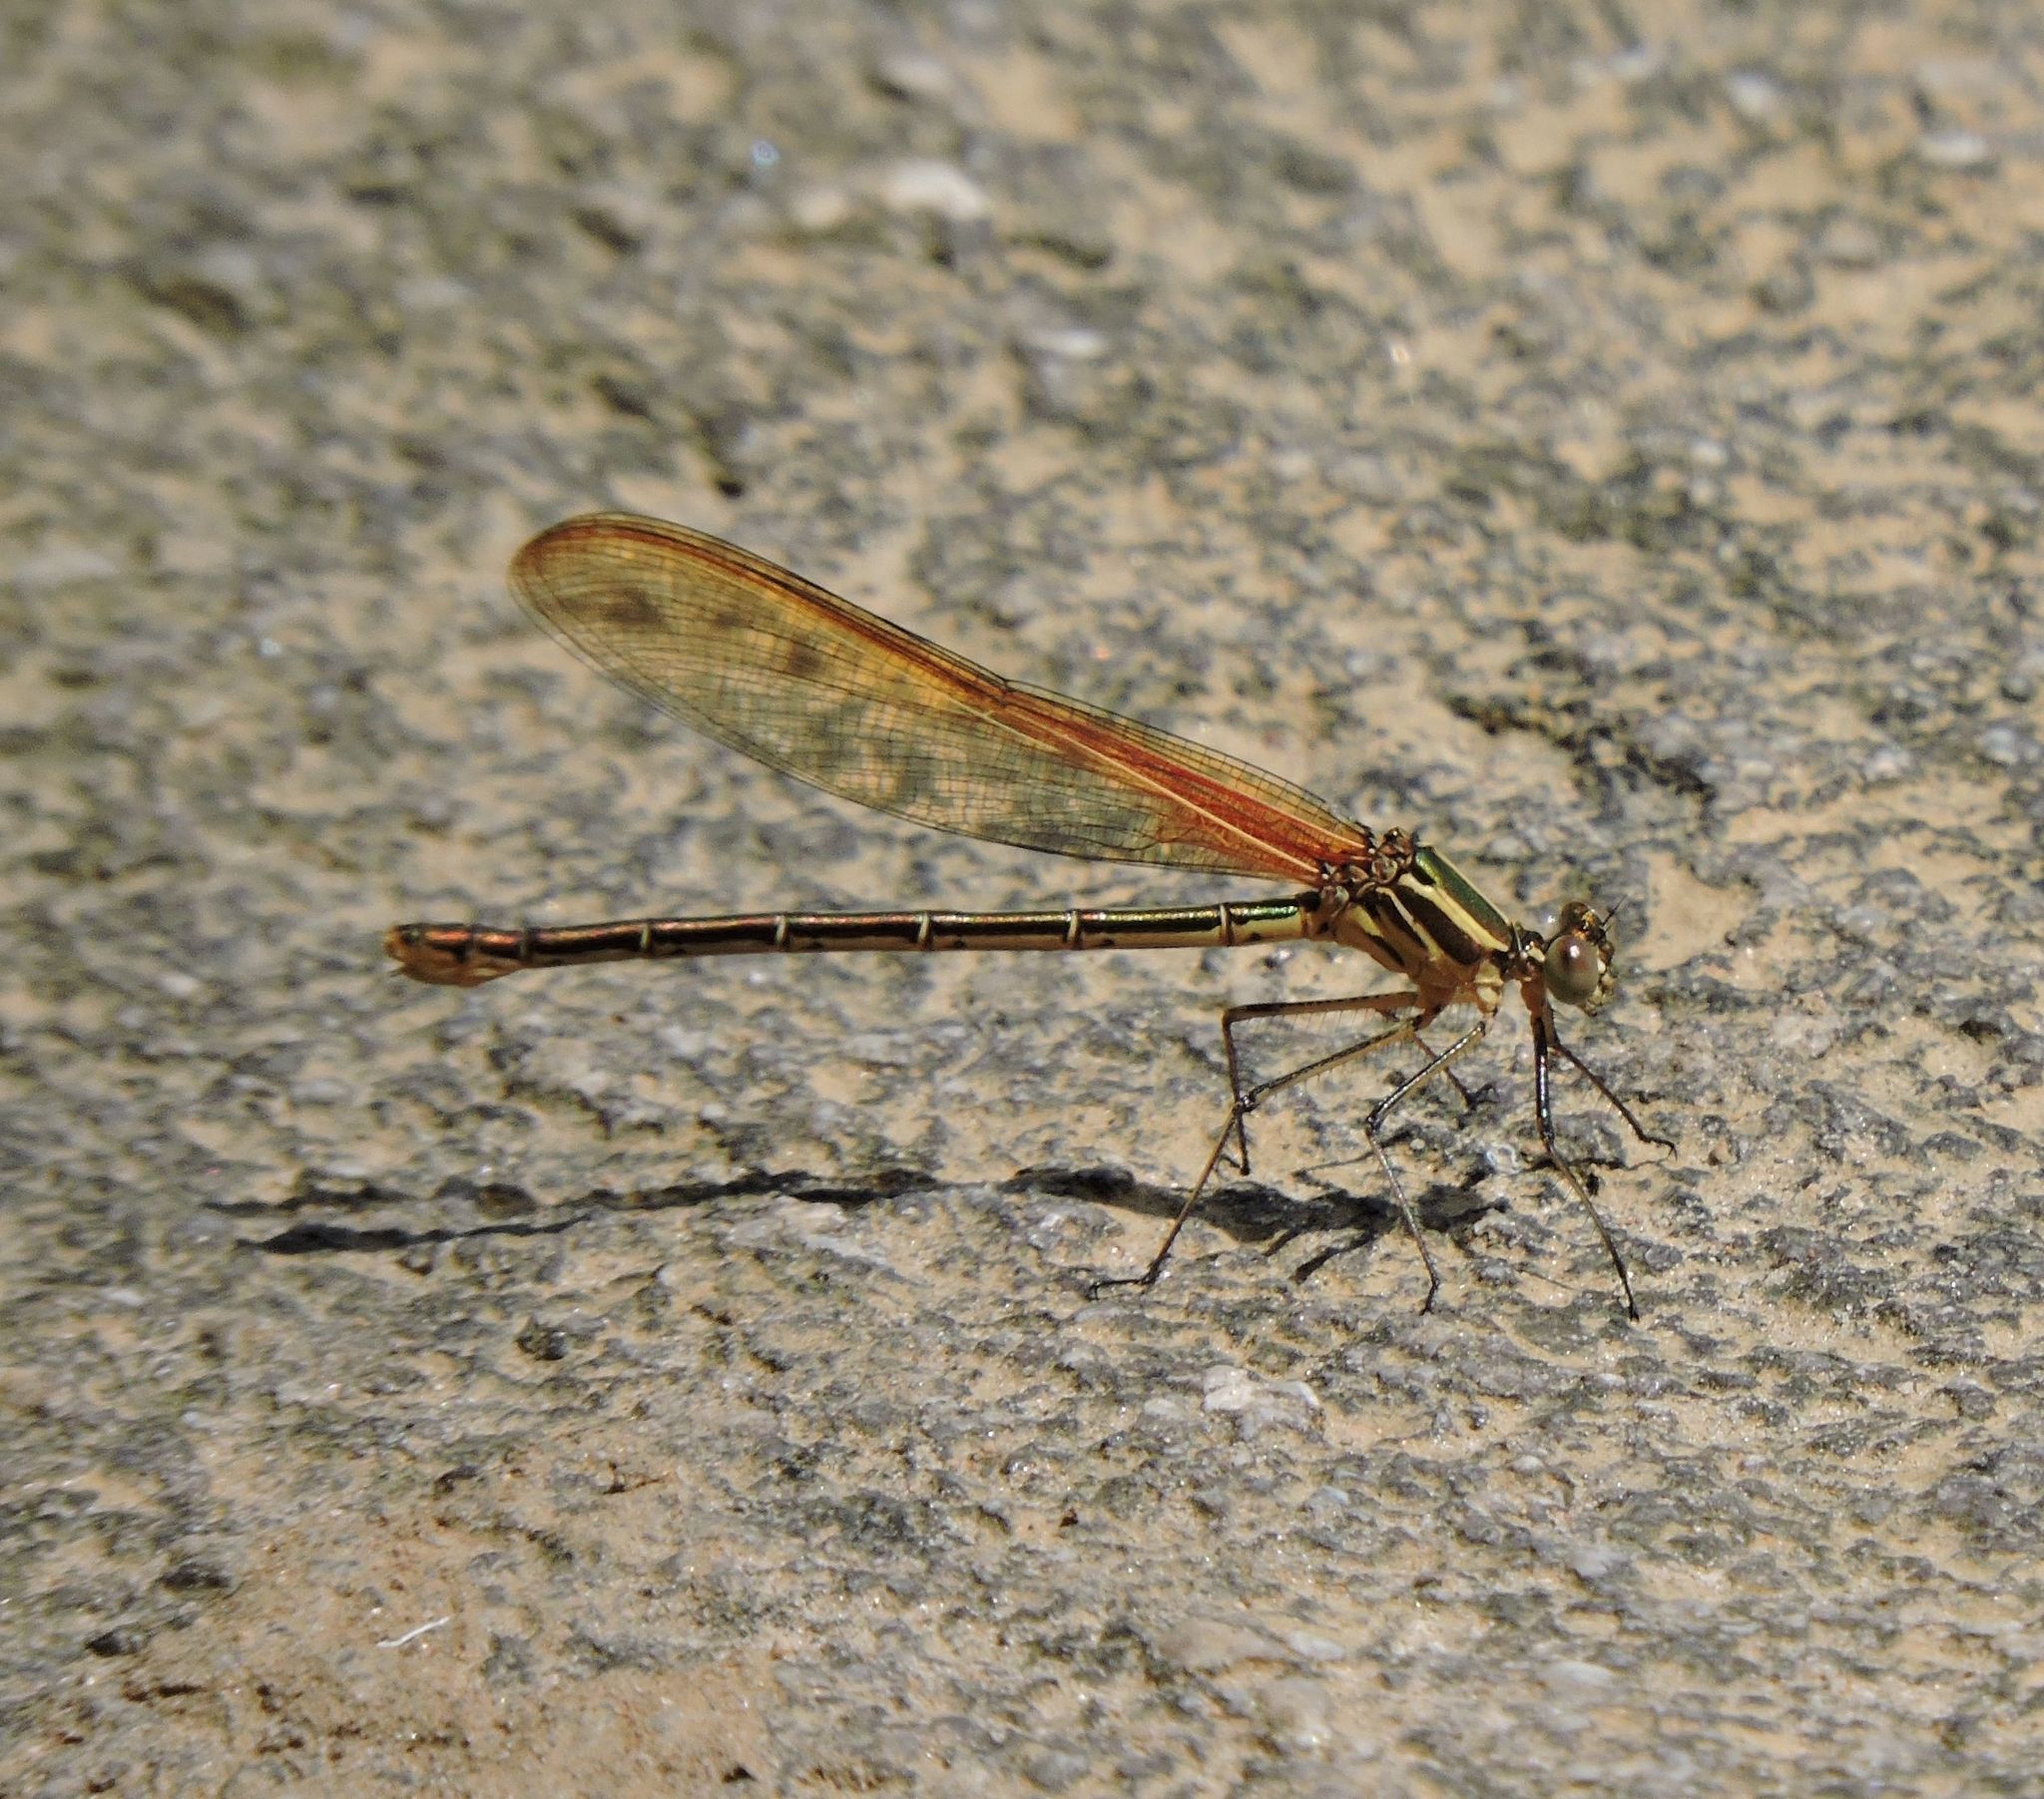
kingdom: Animalia
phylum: Arthropoda
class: Insecta
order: Odonata
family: Calopterygidae
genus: Hetaerina
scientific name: Hetaerina americana
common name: American rubyspot
